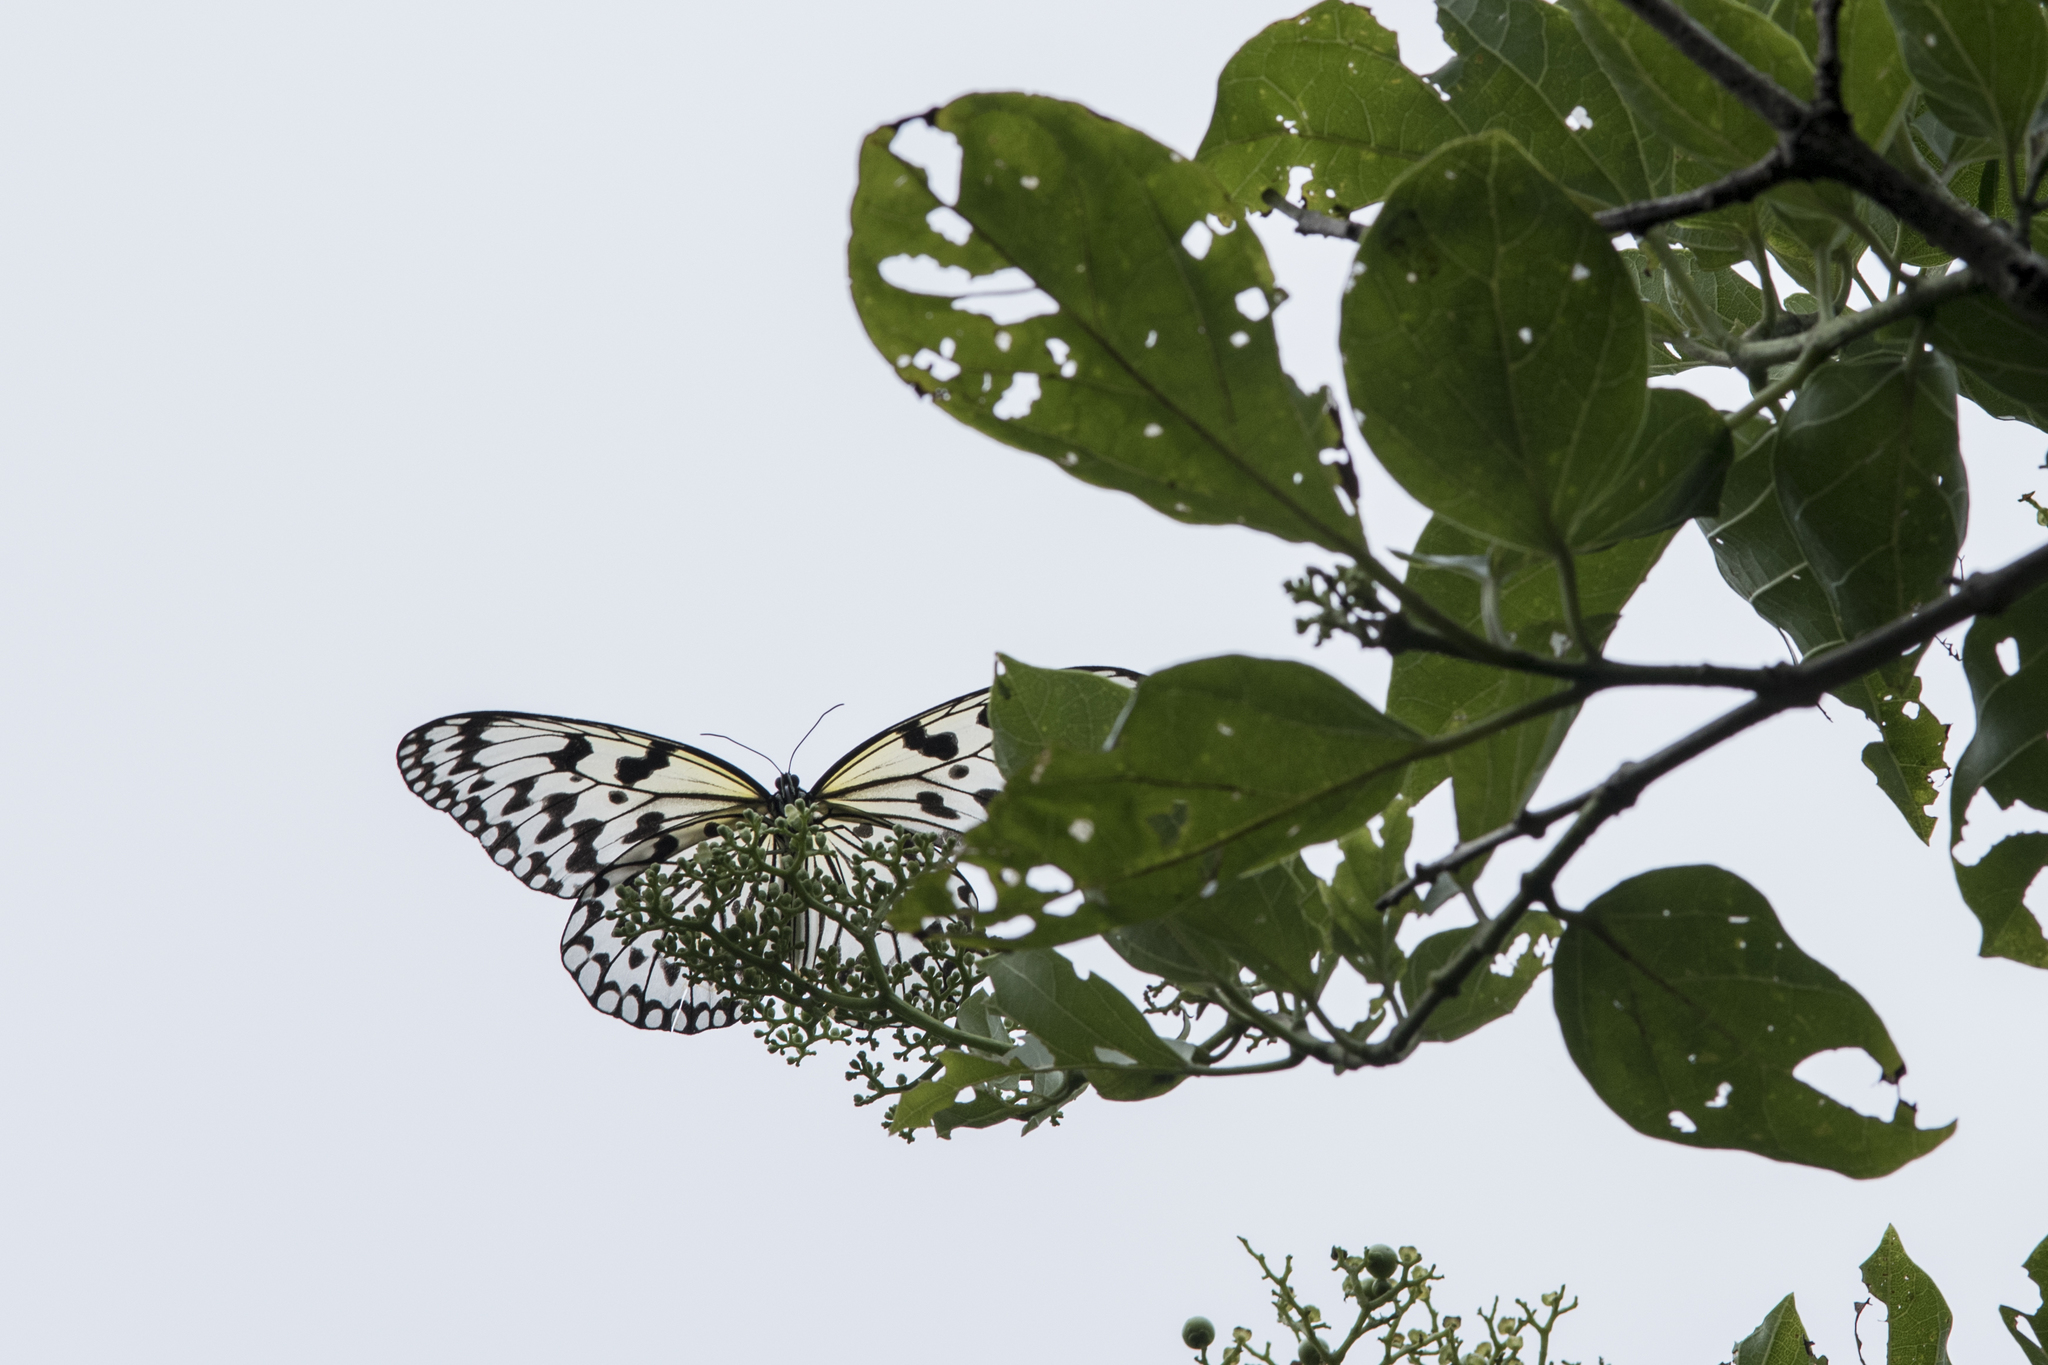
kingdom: Animalia
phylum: Arthropoda
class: Insecta
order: Lepidoptera
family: Nymphalidae
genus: Idea
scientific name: Idea leuconoe
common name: Rice paper butterfly
